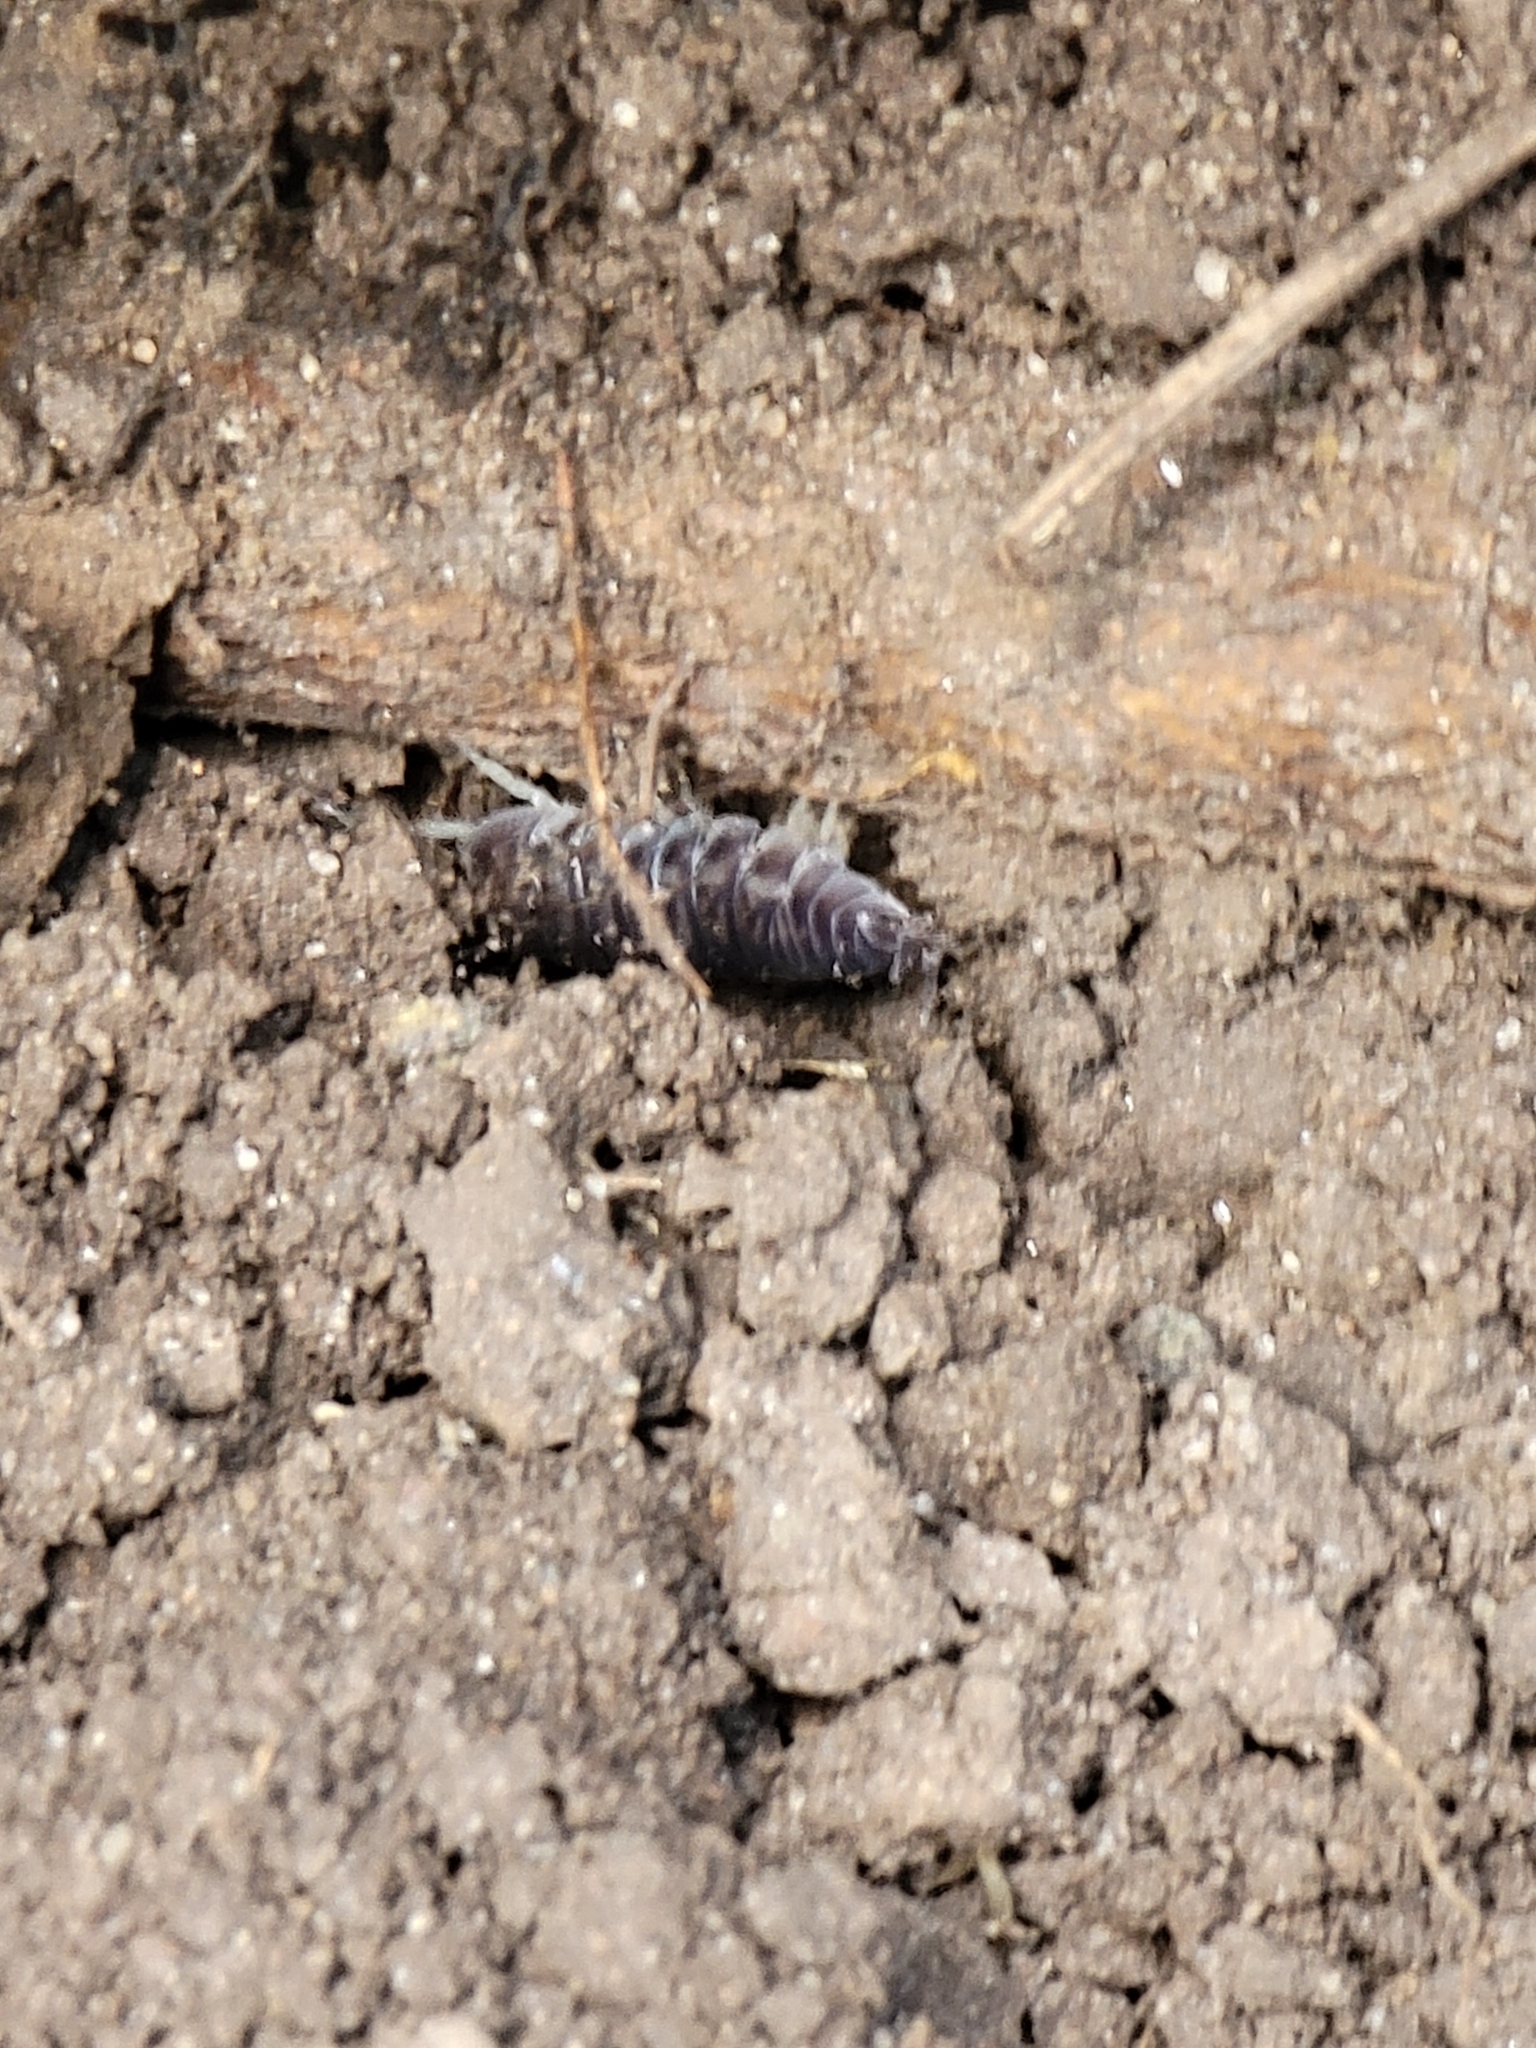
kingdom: Animalia
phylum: Arthropoda
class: Malacostraca
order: Isopoda
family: Cylisticidae
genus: Cylisticus
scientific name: Cylisticus convexus
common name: Curly woodlouse
